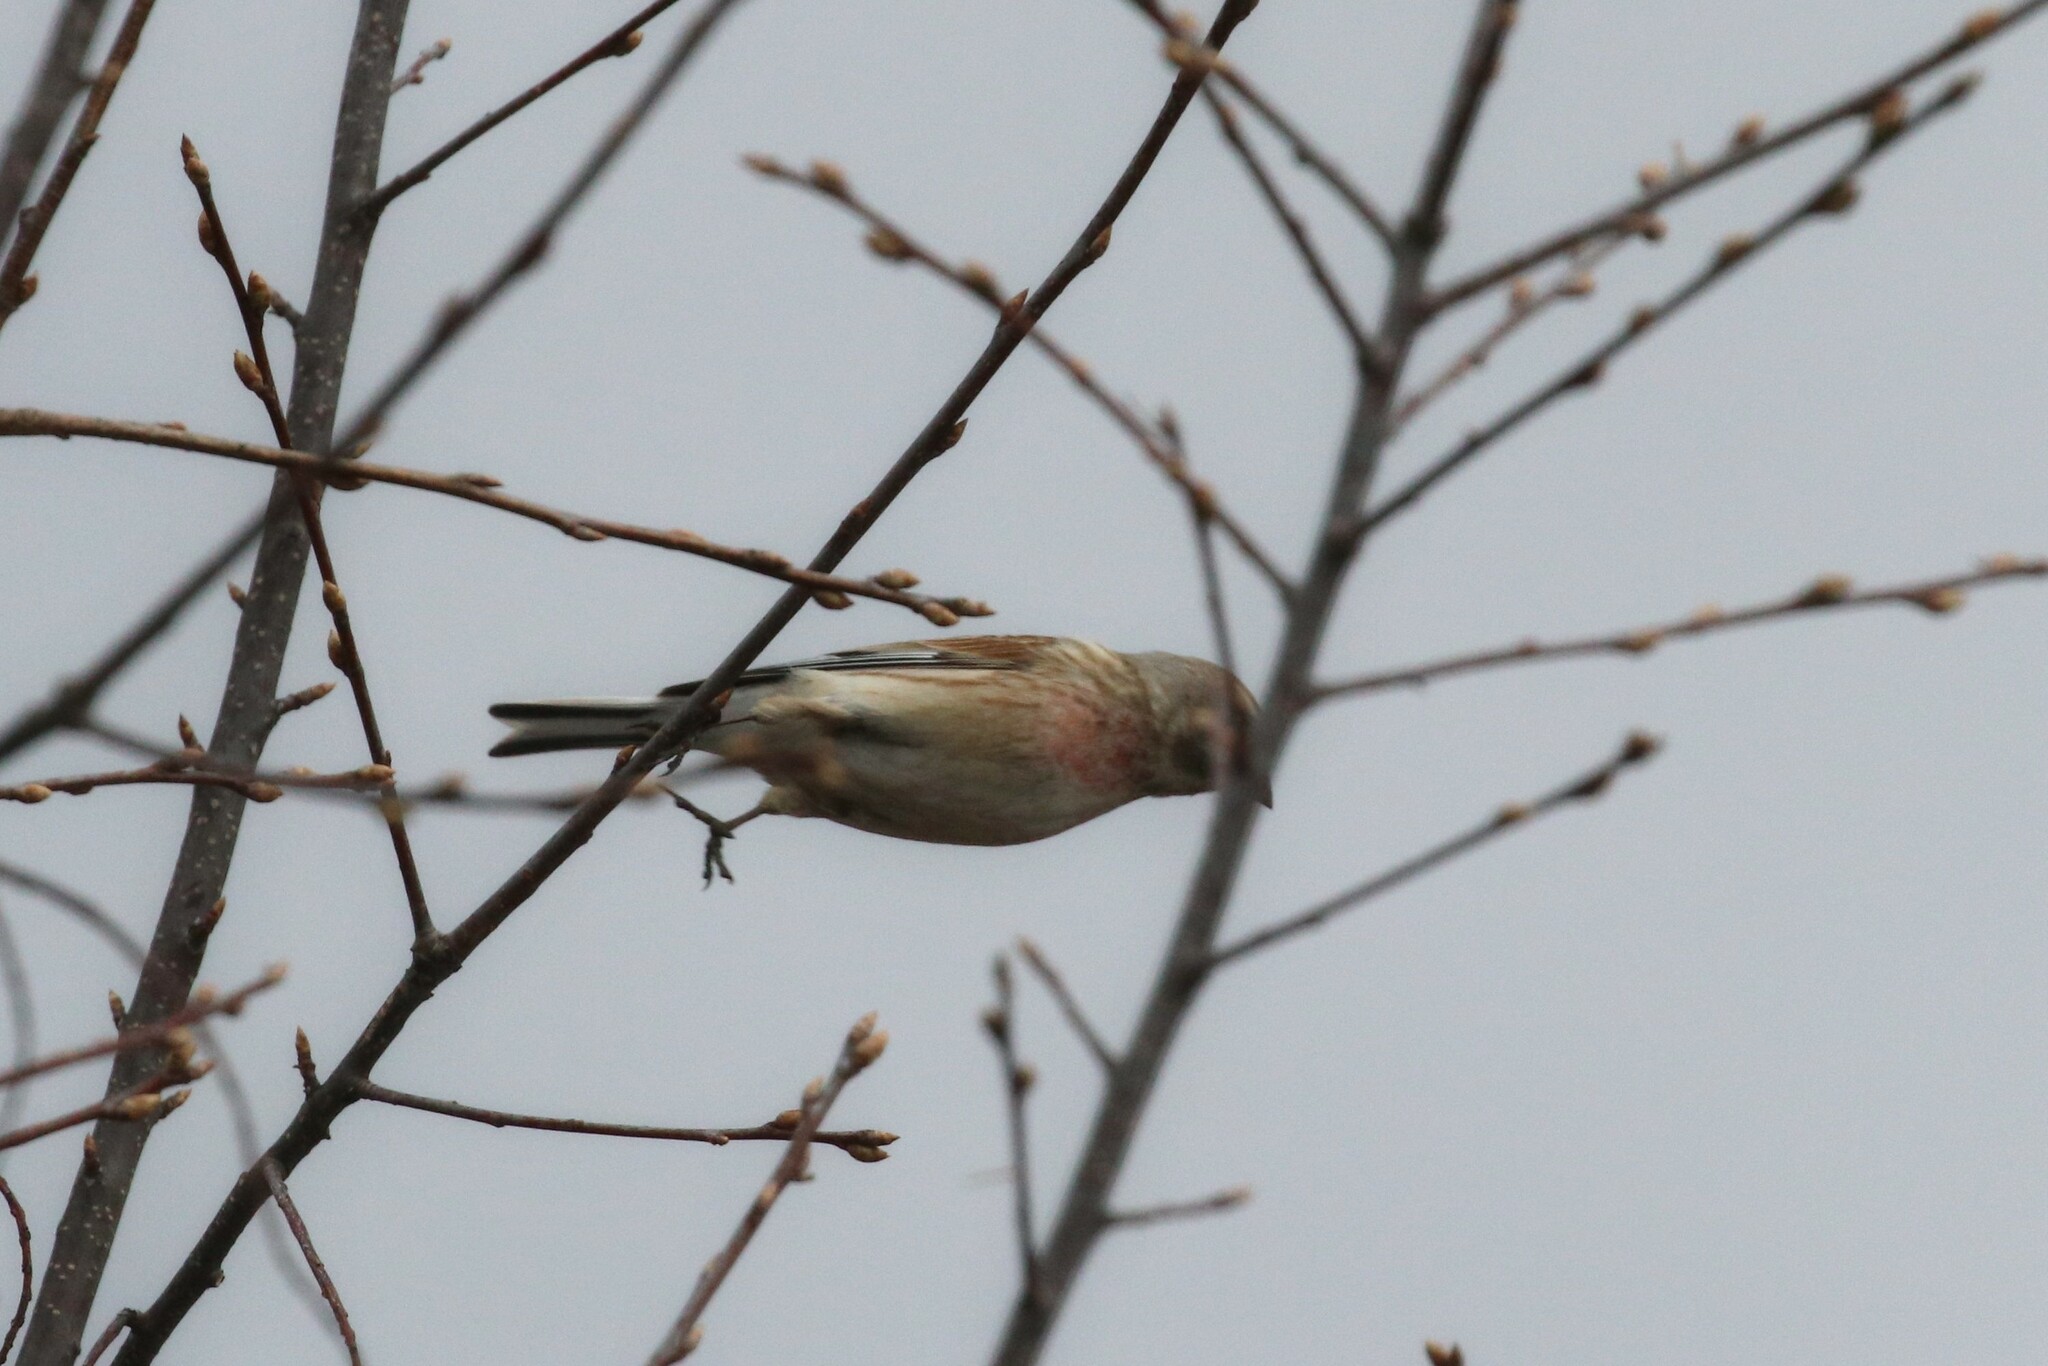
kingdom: Animalia
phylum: Chordata
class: Aves
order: Passeriformes
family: Fringillidae
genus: Linaria
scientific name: Linaria cannabina
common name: Common linnet
